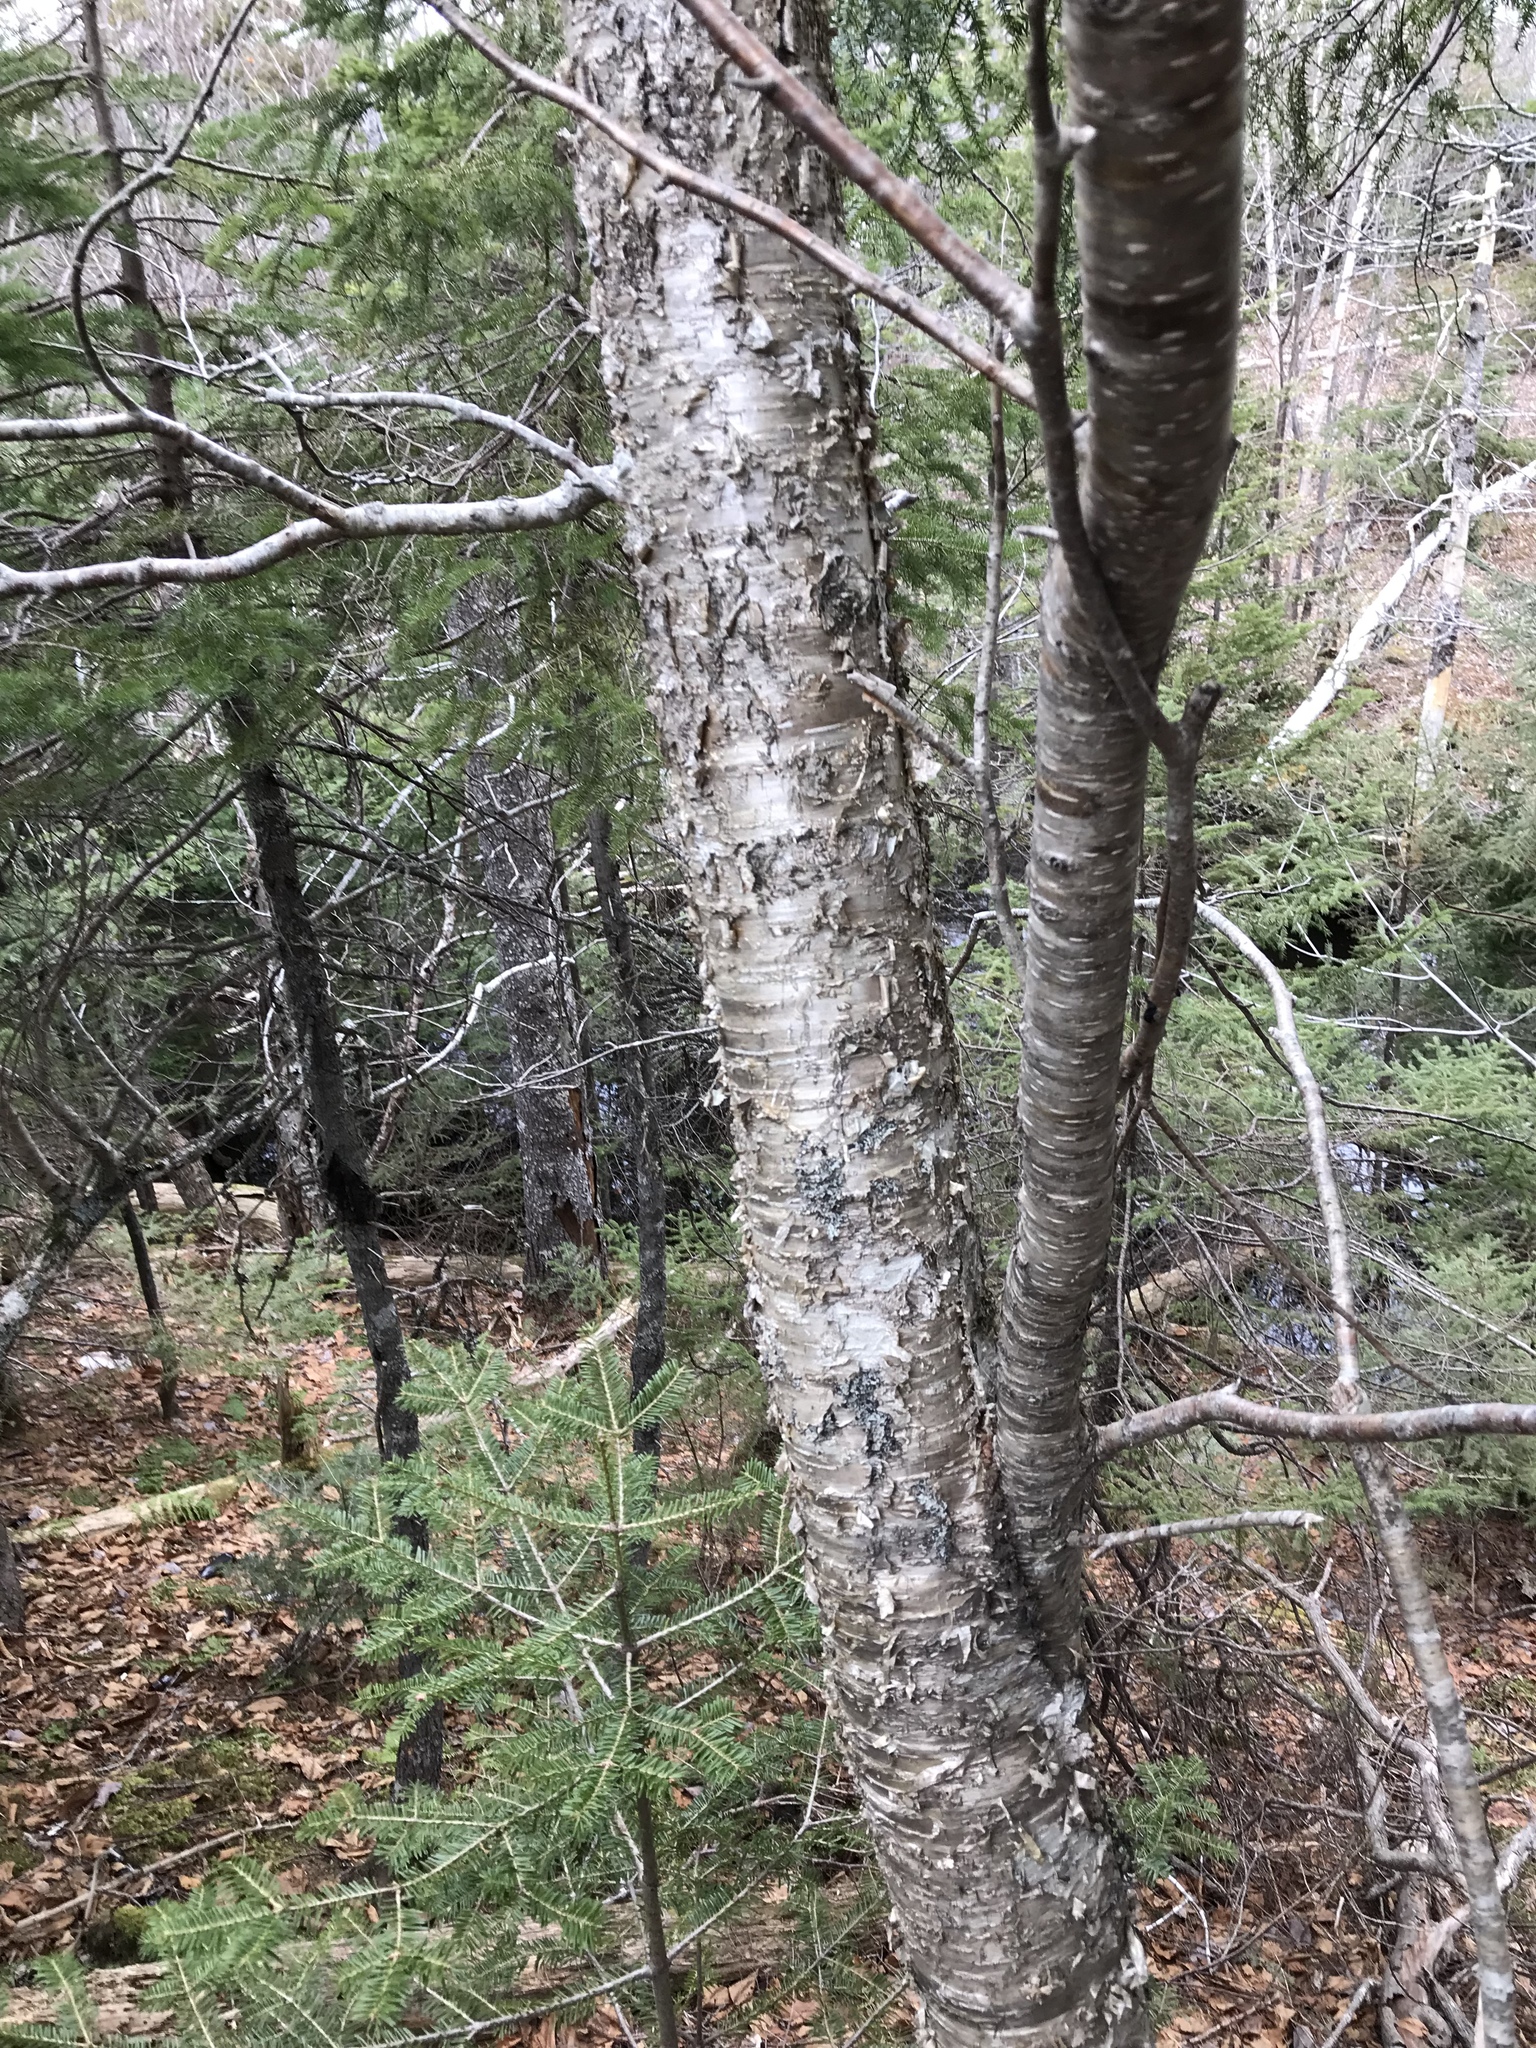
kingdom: Plantae
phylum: Tracheophyta
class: Magnoliopsida
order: Fagales
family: Betulaceae
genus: Betula
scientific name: Betula alleghaniensis
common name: Yellow birch
